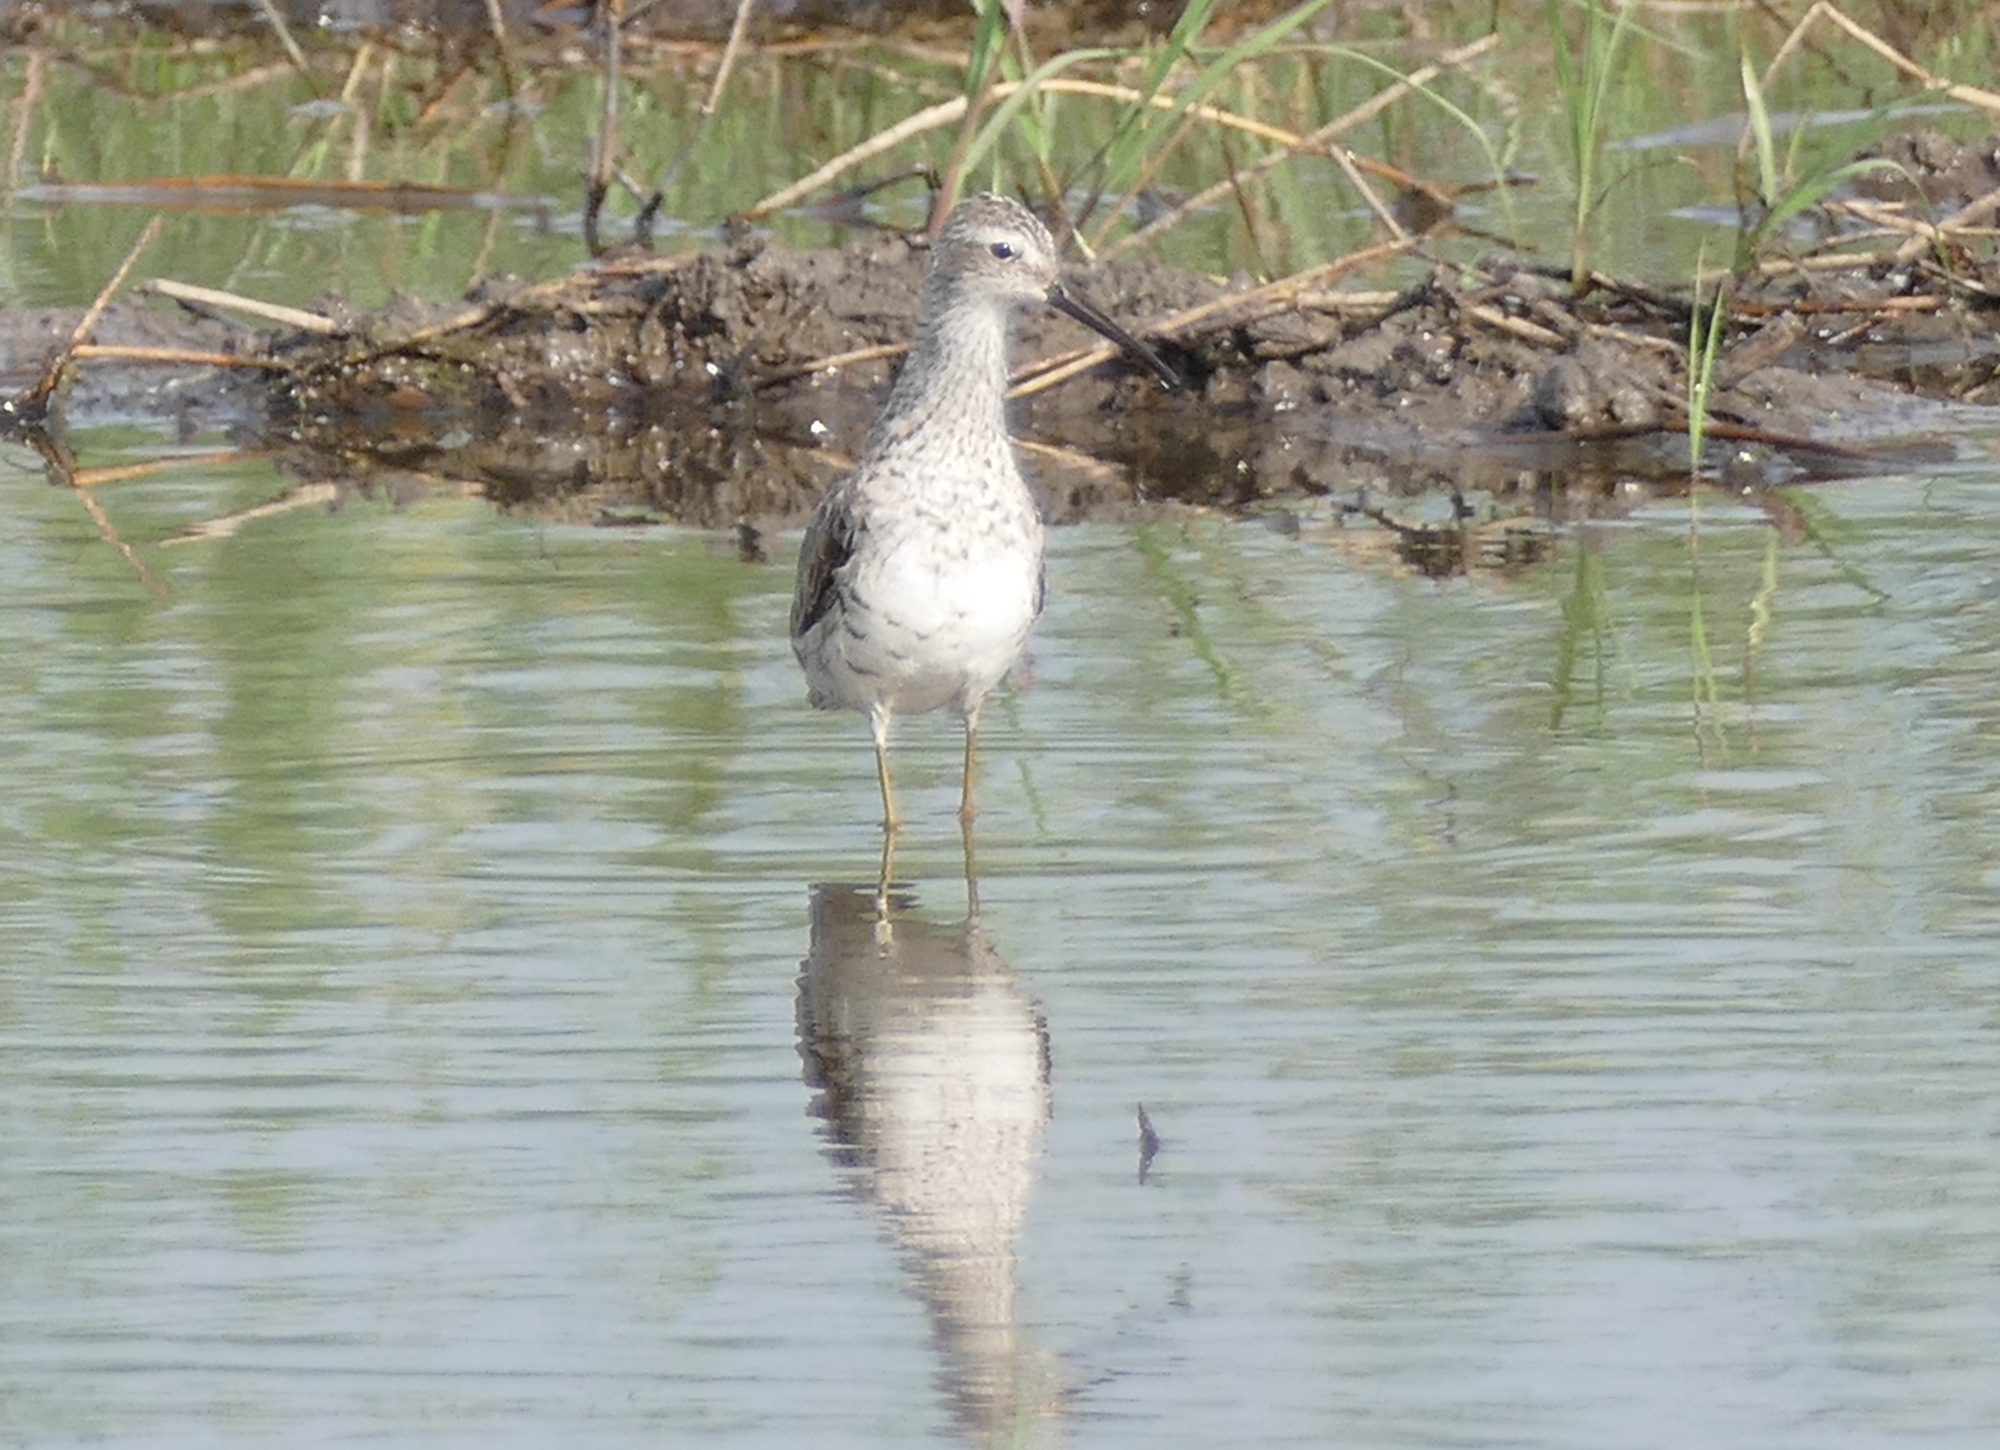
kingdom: Animalia
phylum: Chordata
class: Aves
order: Charadriiformes
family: Scolopacidae
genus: Calidris
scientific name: Calidris himantopus
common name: Stilt sandpiper
